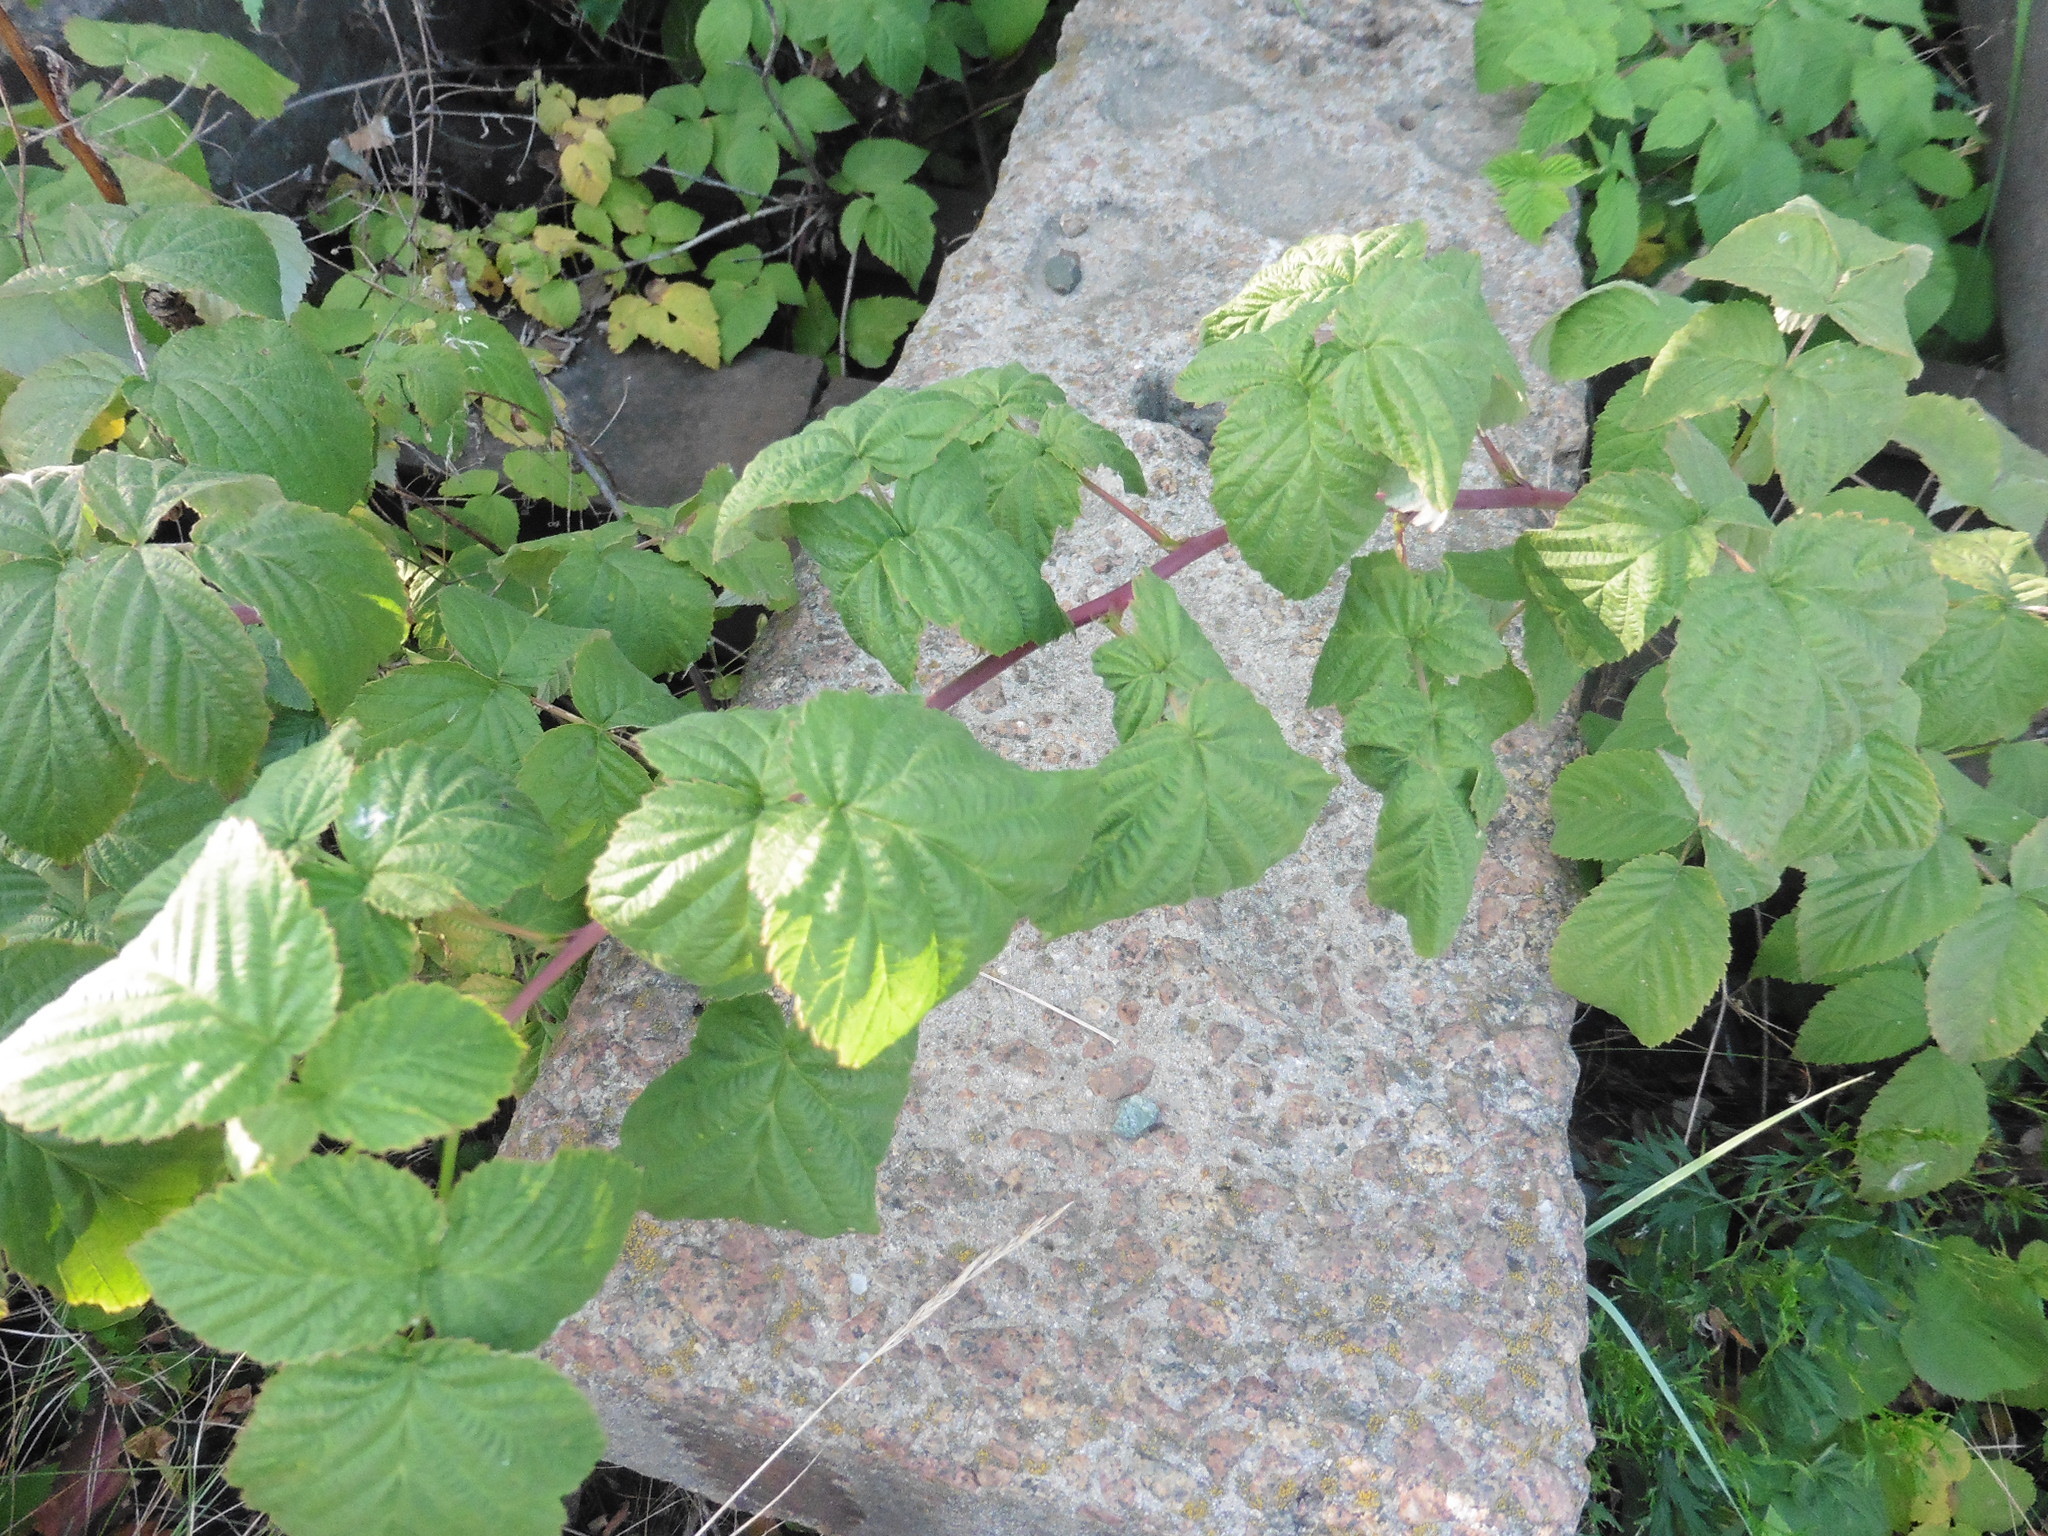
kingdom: Plantae
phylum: Tracheophyta
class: Magnoliopsida
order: Rosales
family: Rosaceae
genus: Rubus
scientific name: Rubus idaeus
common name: Raspberry
